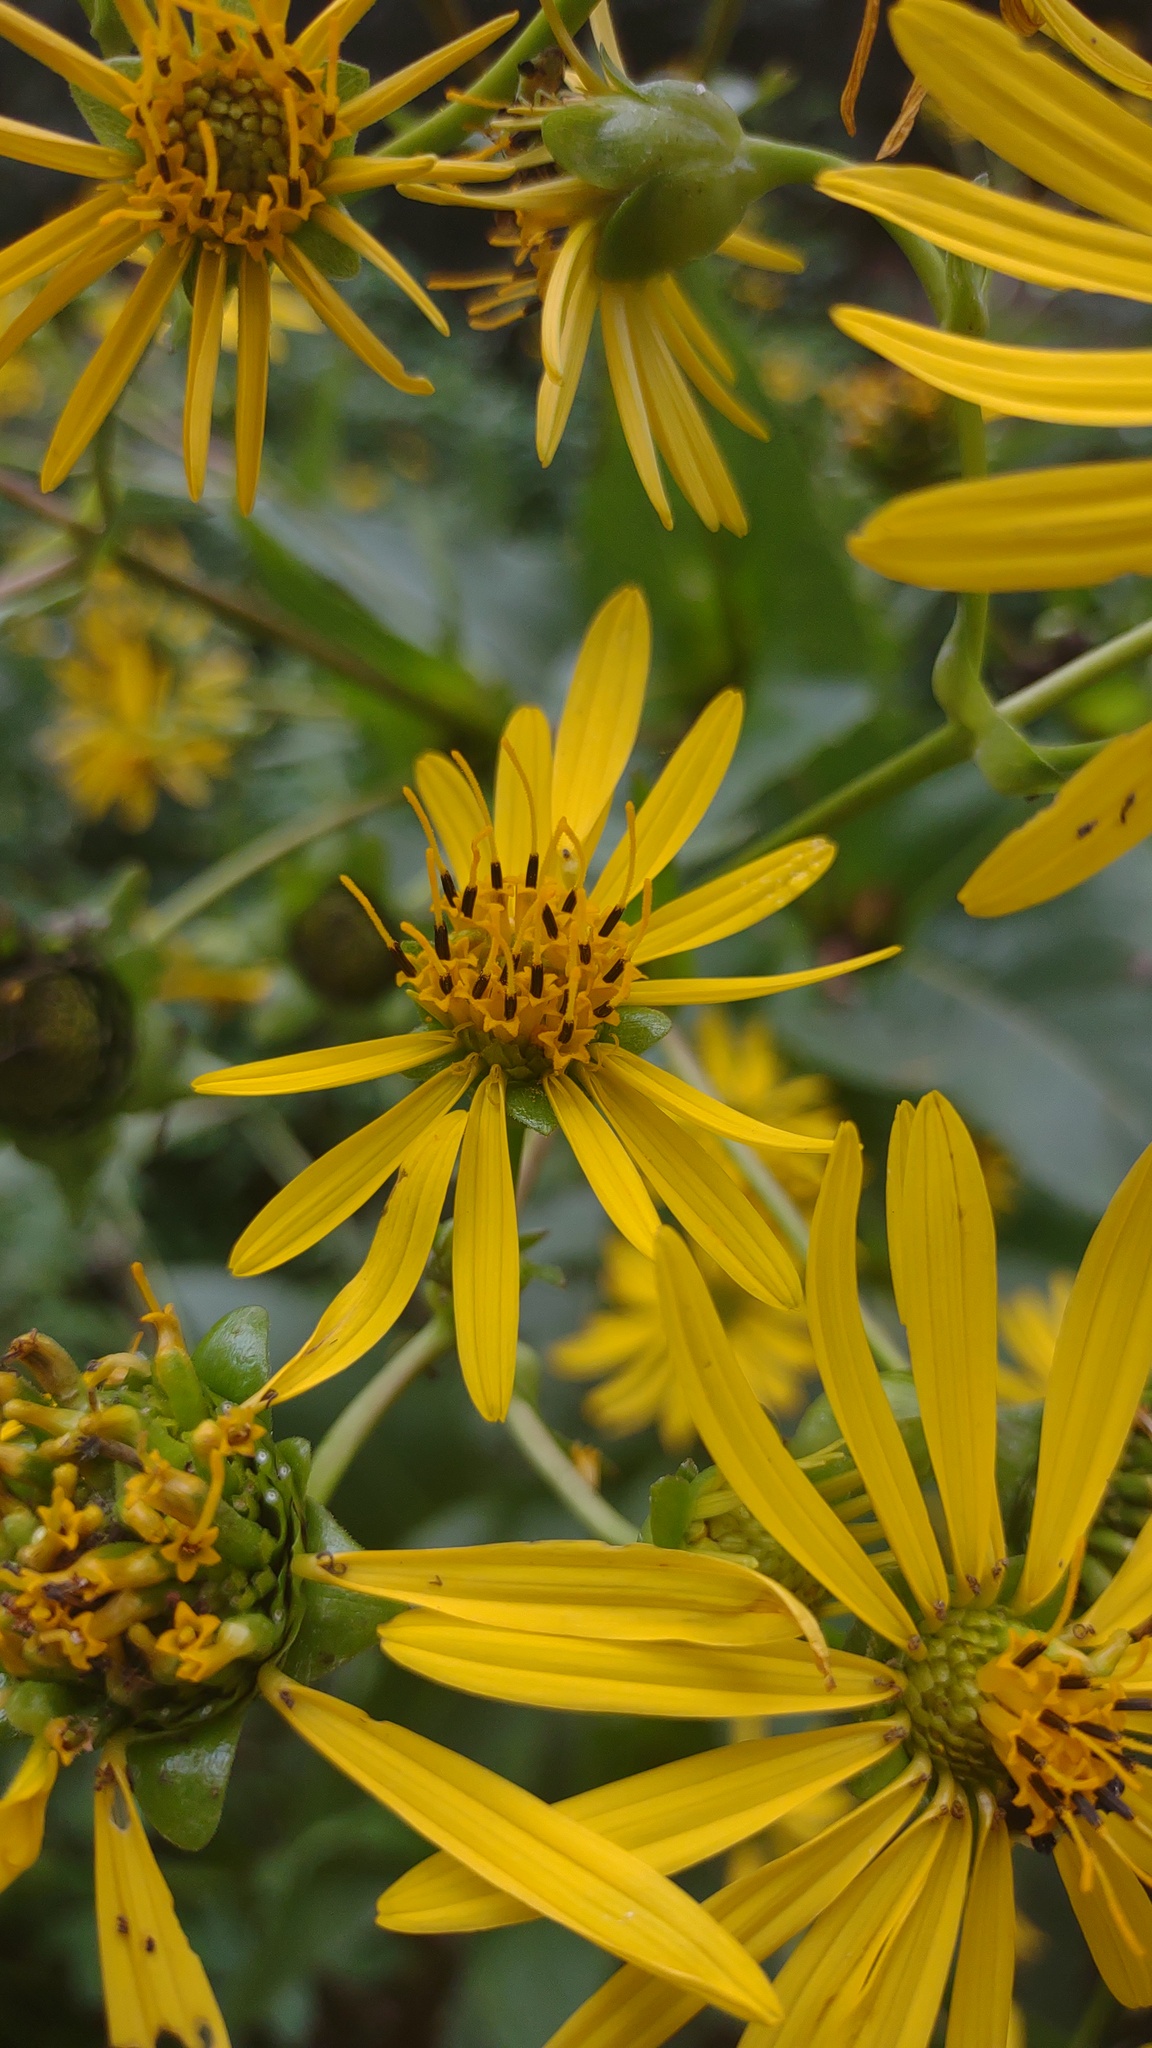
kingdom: Plantae
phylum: Tracheophyta
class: Magnoliopsida
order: Asterales
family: Asteraceae
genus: Silphium
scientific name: Silphium perfoliatum
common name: Cup-plant
